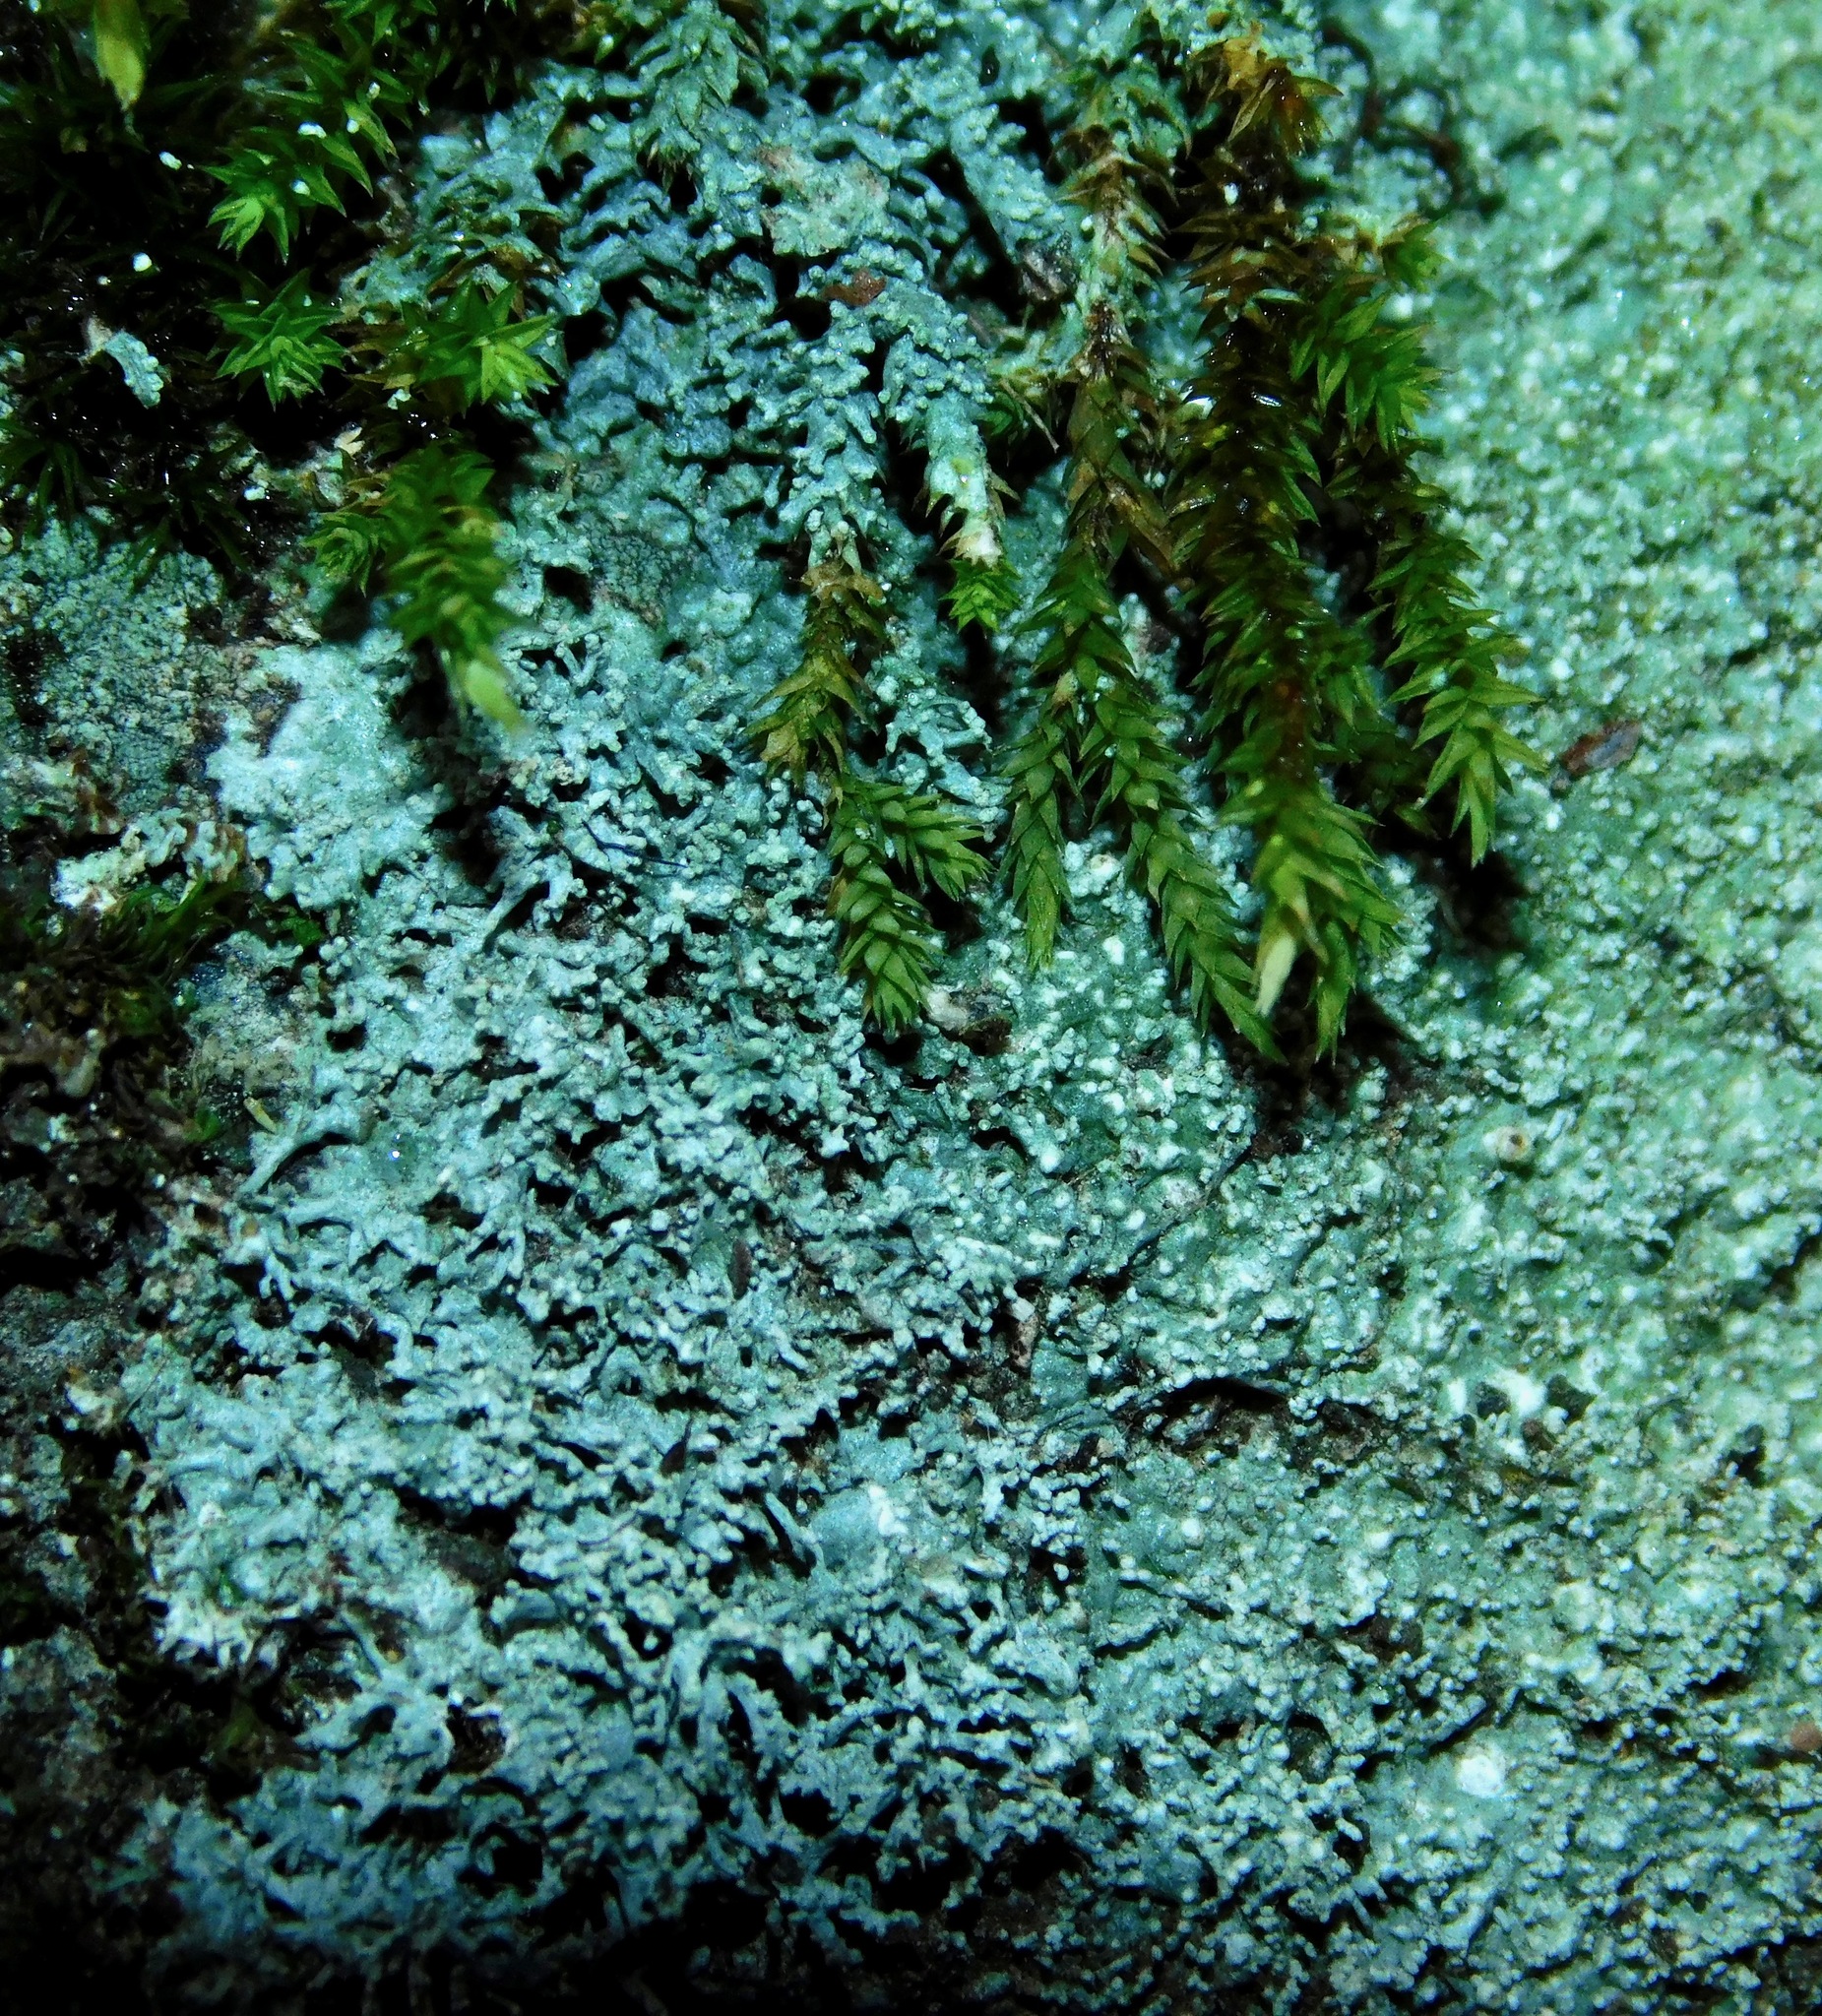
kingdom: Fungi
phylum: Ascomycota
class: Lecanoromycetes
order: Pertusariales
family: Ochrolechiaceae
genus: Ochrolechia
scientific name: Ochrolechia yasudae
